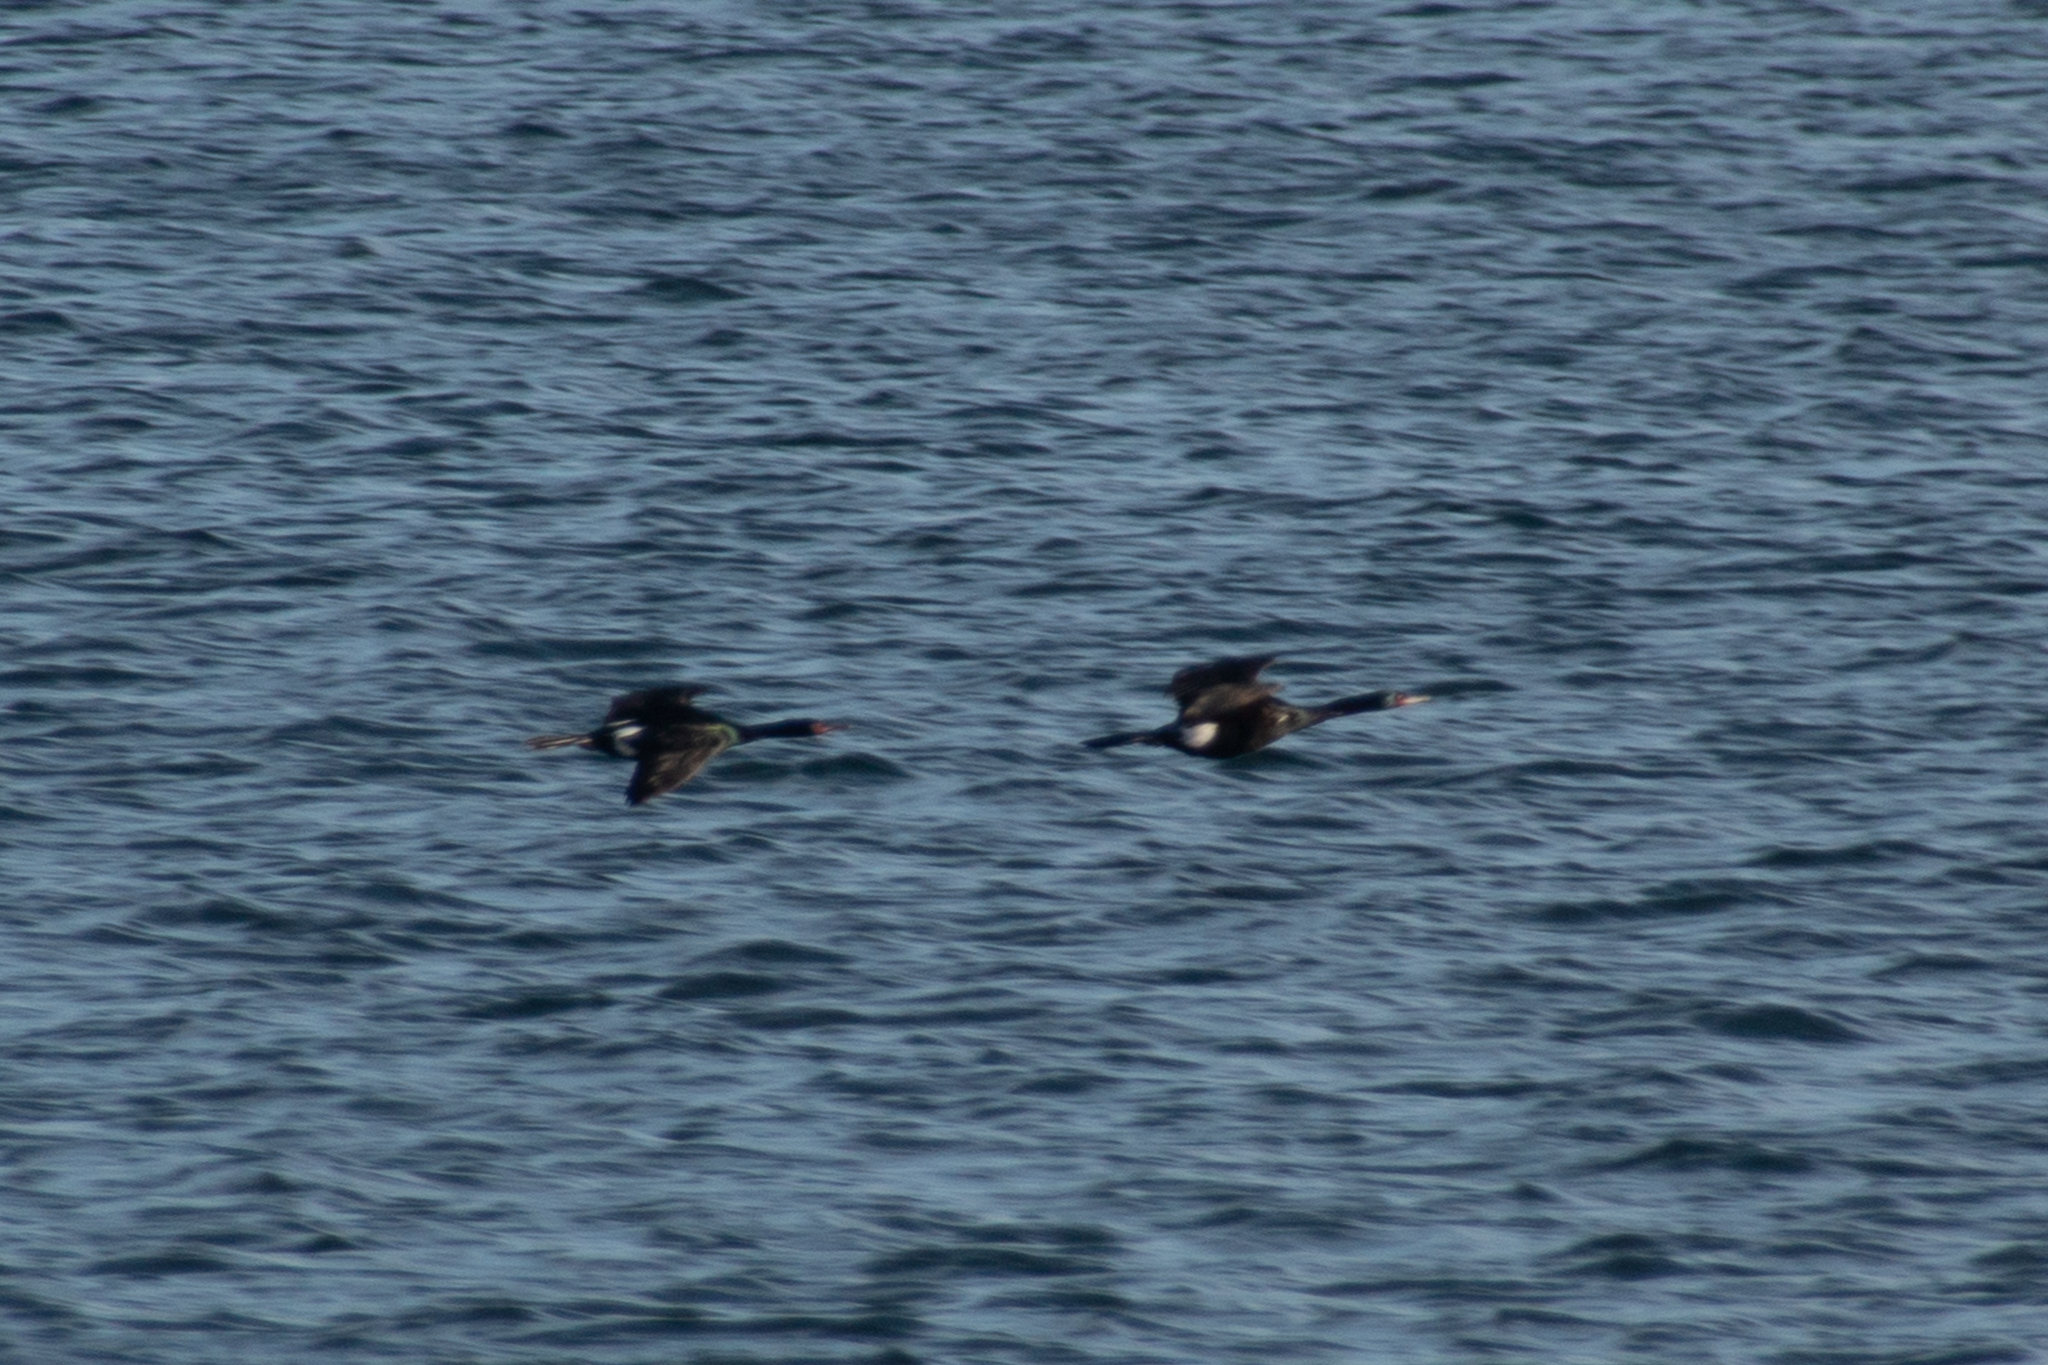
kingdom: Animalia
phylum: Chordata
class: Aves
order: Suliformes
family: Phalacrocoracidae
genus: Phalacrocorax
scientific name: Phalacrocorax pelagicus
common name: Pelagic cormorant
